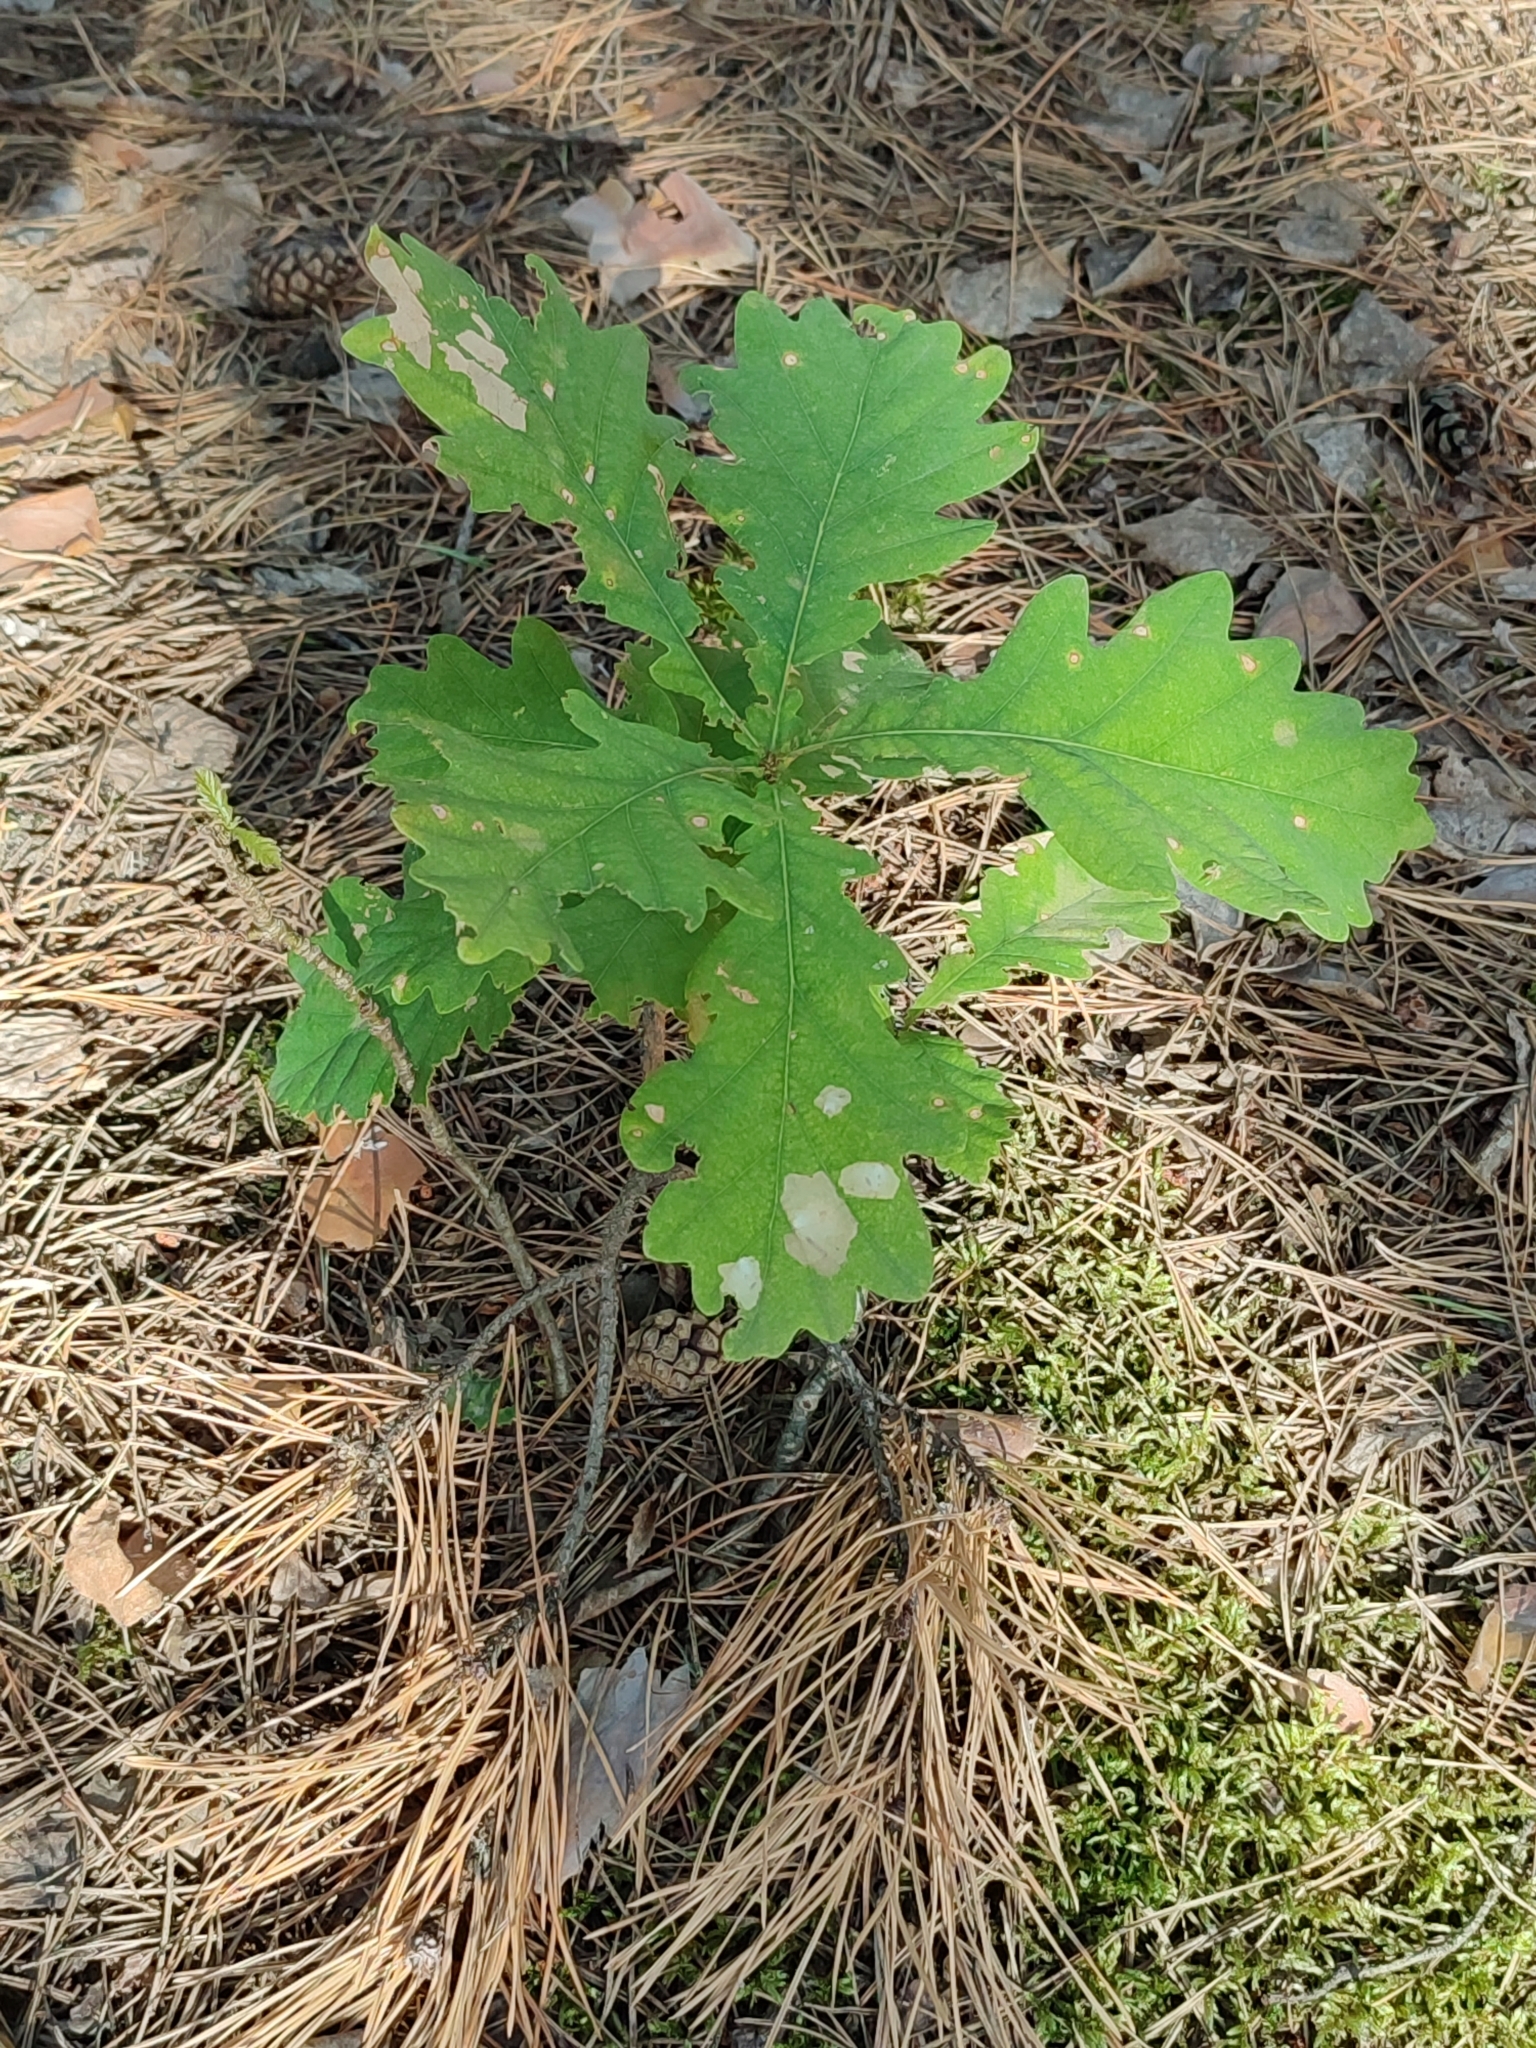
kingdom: Plantae
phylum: Tracheophyta
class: Magnoliopsida
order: Fagales
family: Fagaceae
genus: Quercus
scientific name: Quercus robur
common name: Pedunculate oak
